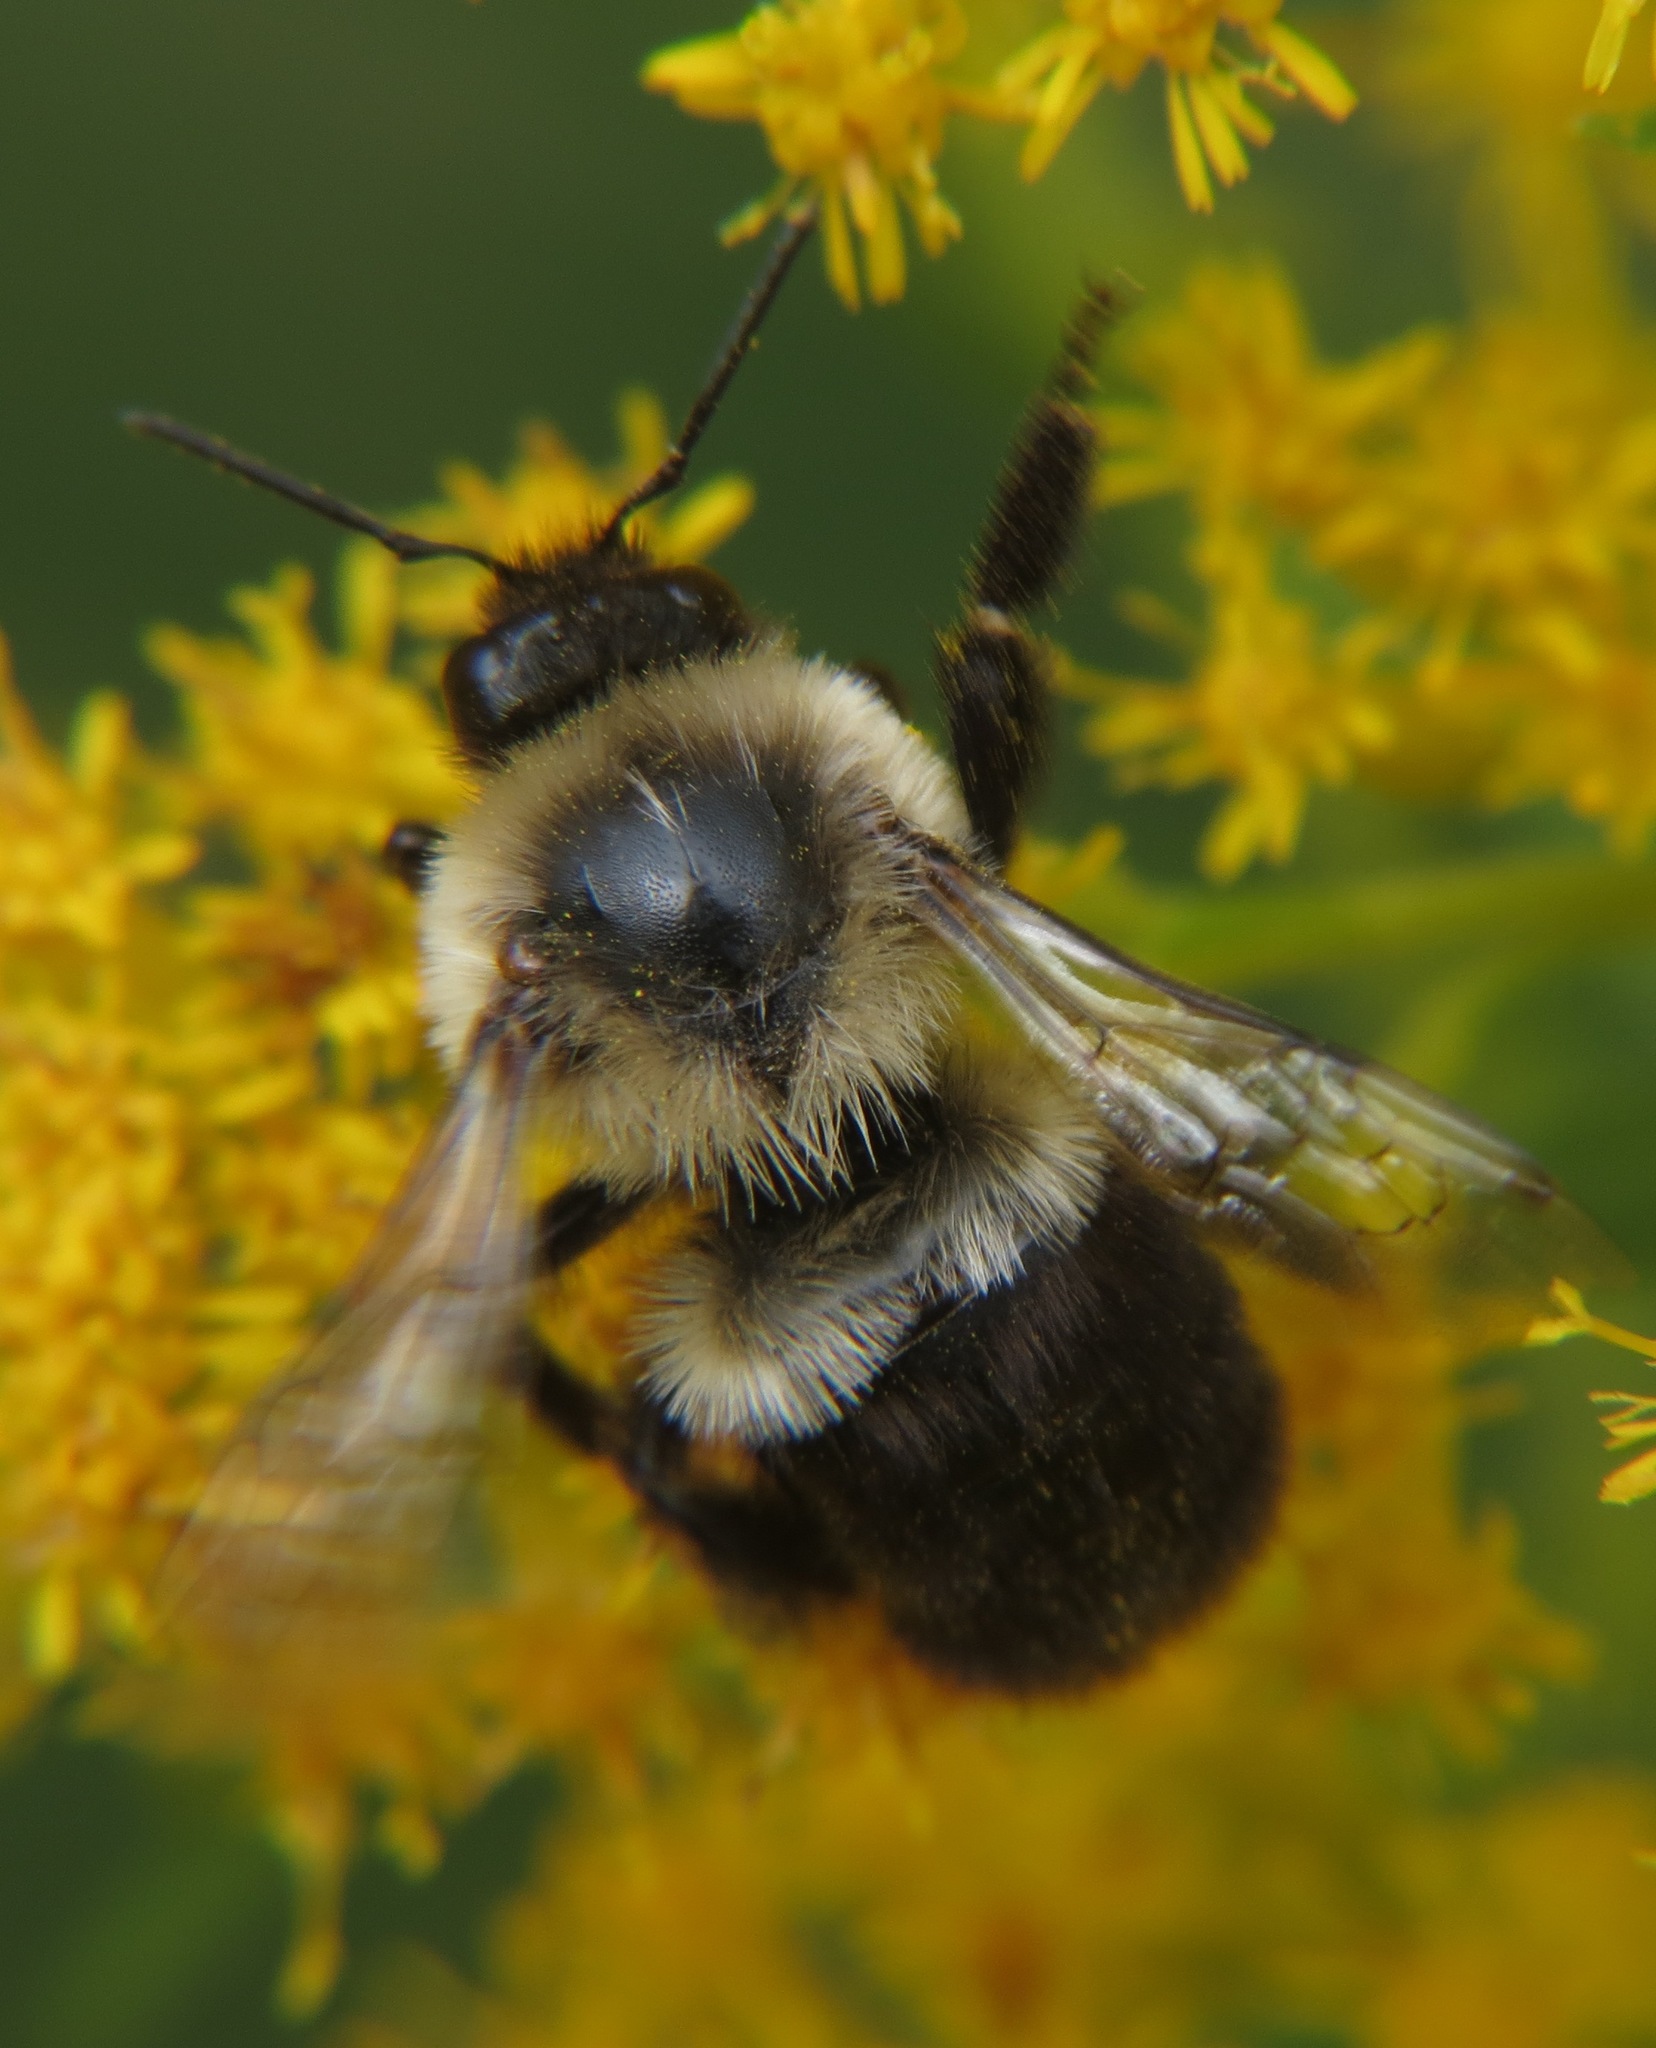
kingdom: Animalia
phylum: Arthropoda
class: Insecta
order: Hymenoptera
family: Apidae
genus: Bombus
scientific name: Bombus impatiens
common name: Common eastern bumble bee
